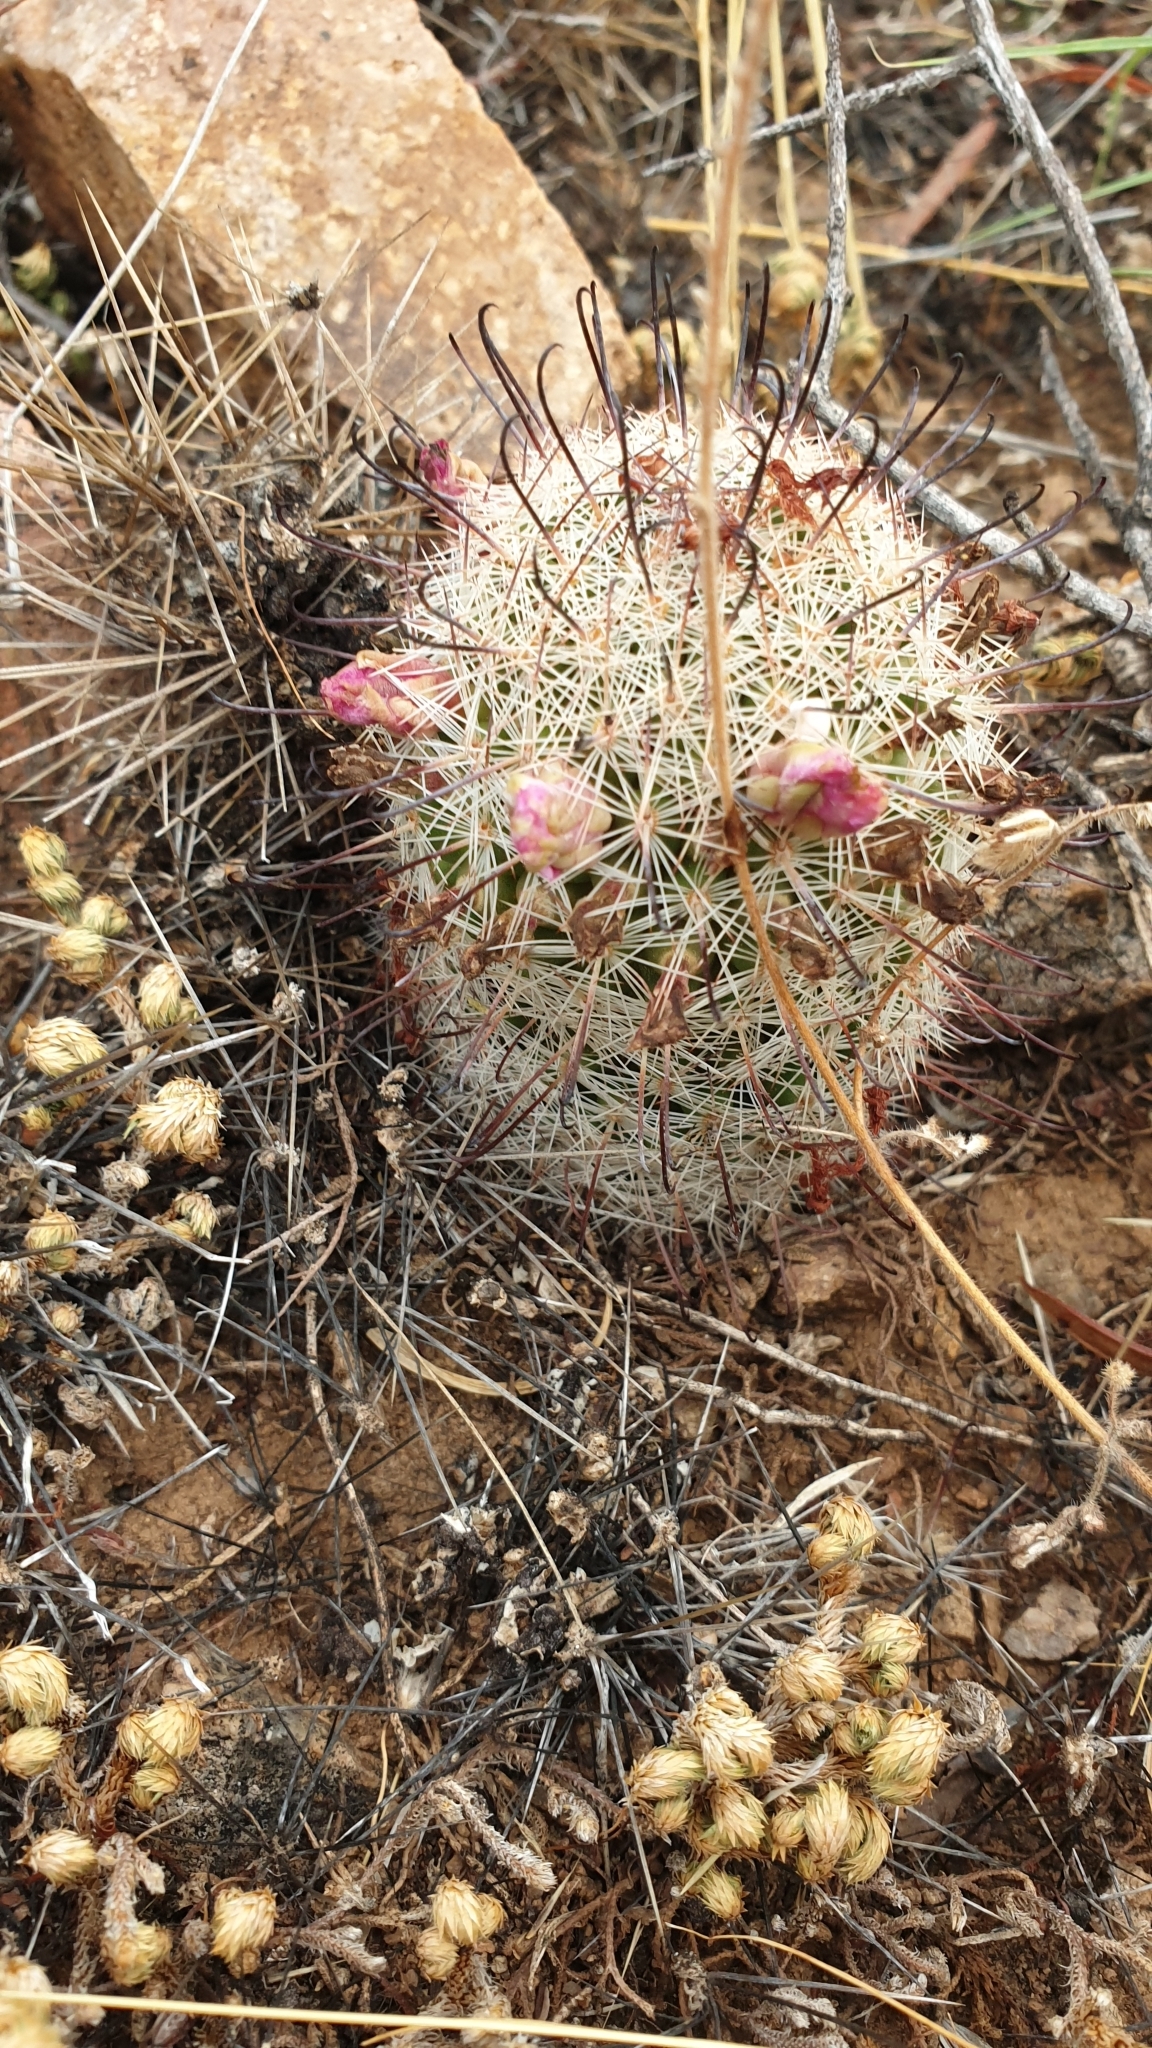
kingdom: Plantae
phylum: Tracheophyta
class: Magnoliopsida
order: Caryophyllales
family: Cactaceae
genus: Cochemiea
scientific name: Cochemiea grahamii
